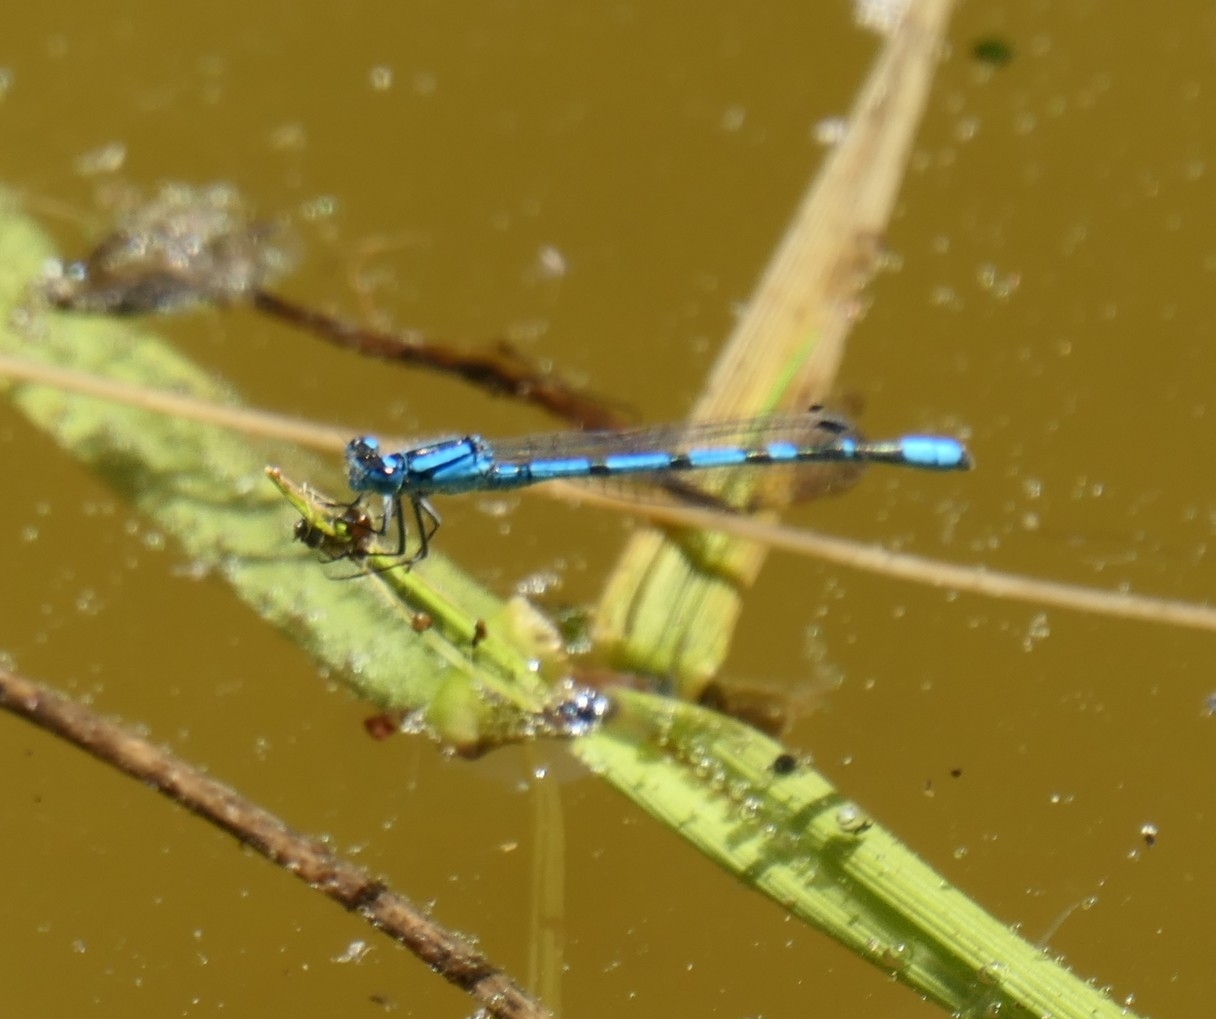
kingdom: Animalia
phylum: Arthropoda
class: Insecta
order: Odonata
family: Coenagrionidae
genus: Enallagma
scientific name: Enallagma cyathigerum
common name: Common blue damselfly
